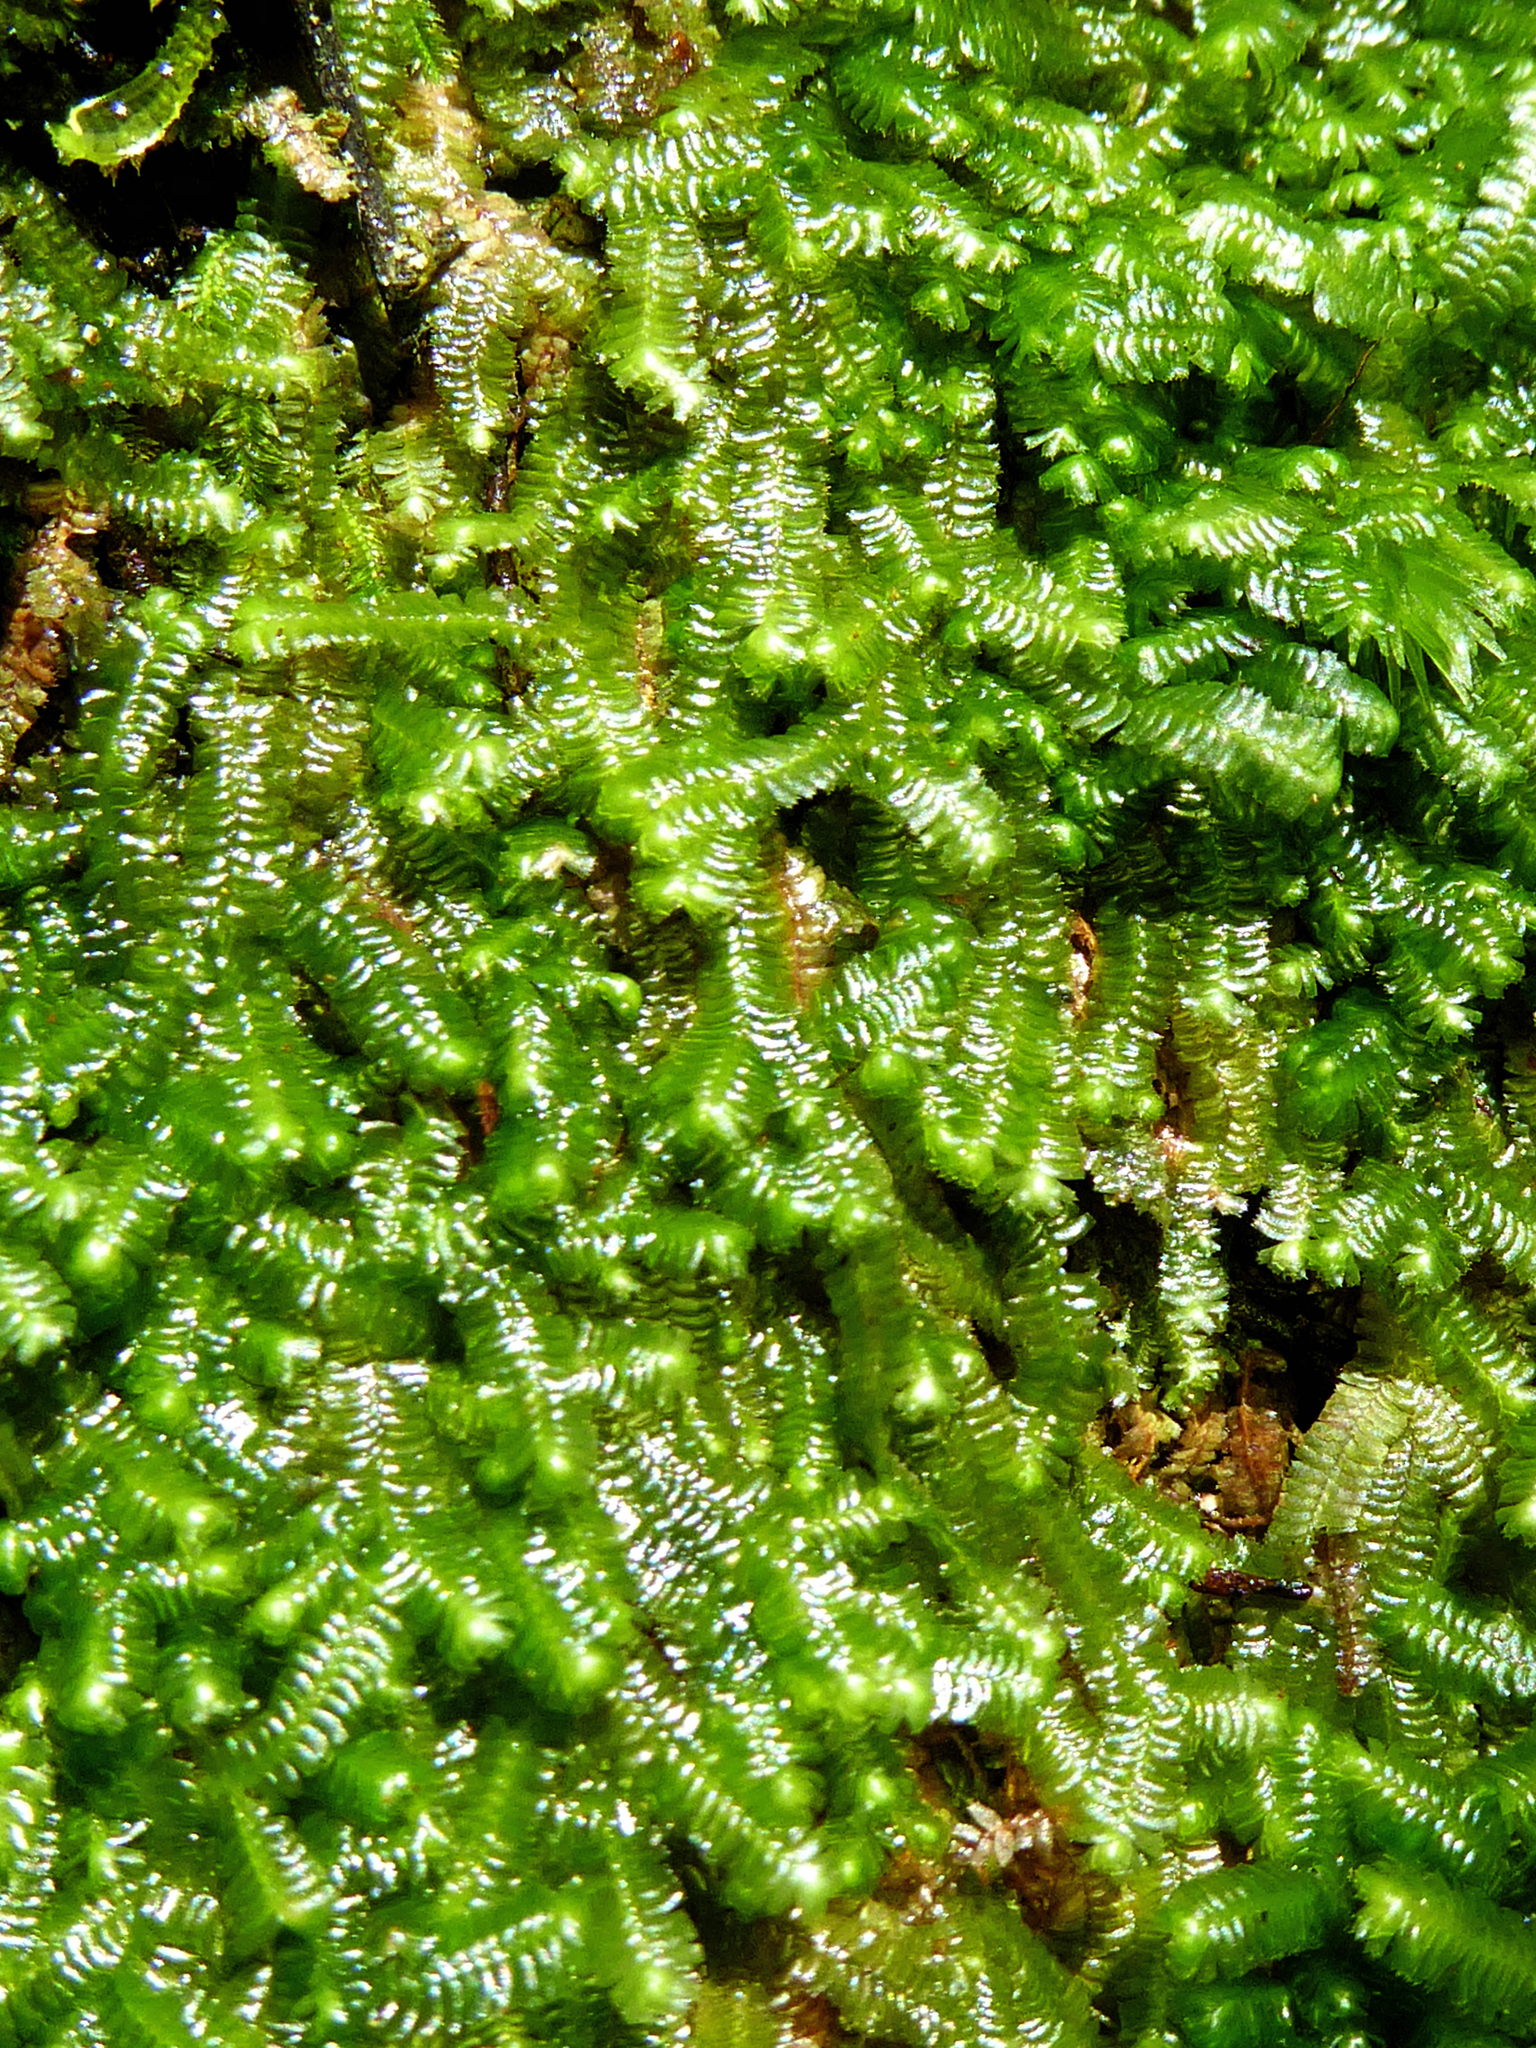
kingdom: Plantae
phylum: Marchantiophyta
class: Jungermanniopsida
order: Jungermanniales
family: Lepidoziaceae
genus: Bazzania
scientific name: Bazzania adnexa
